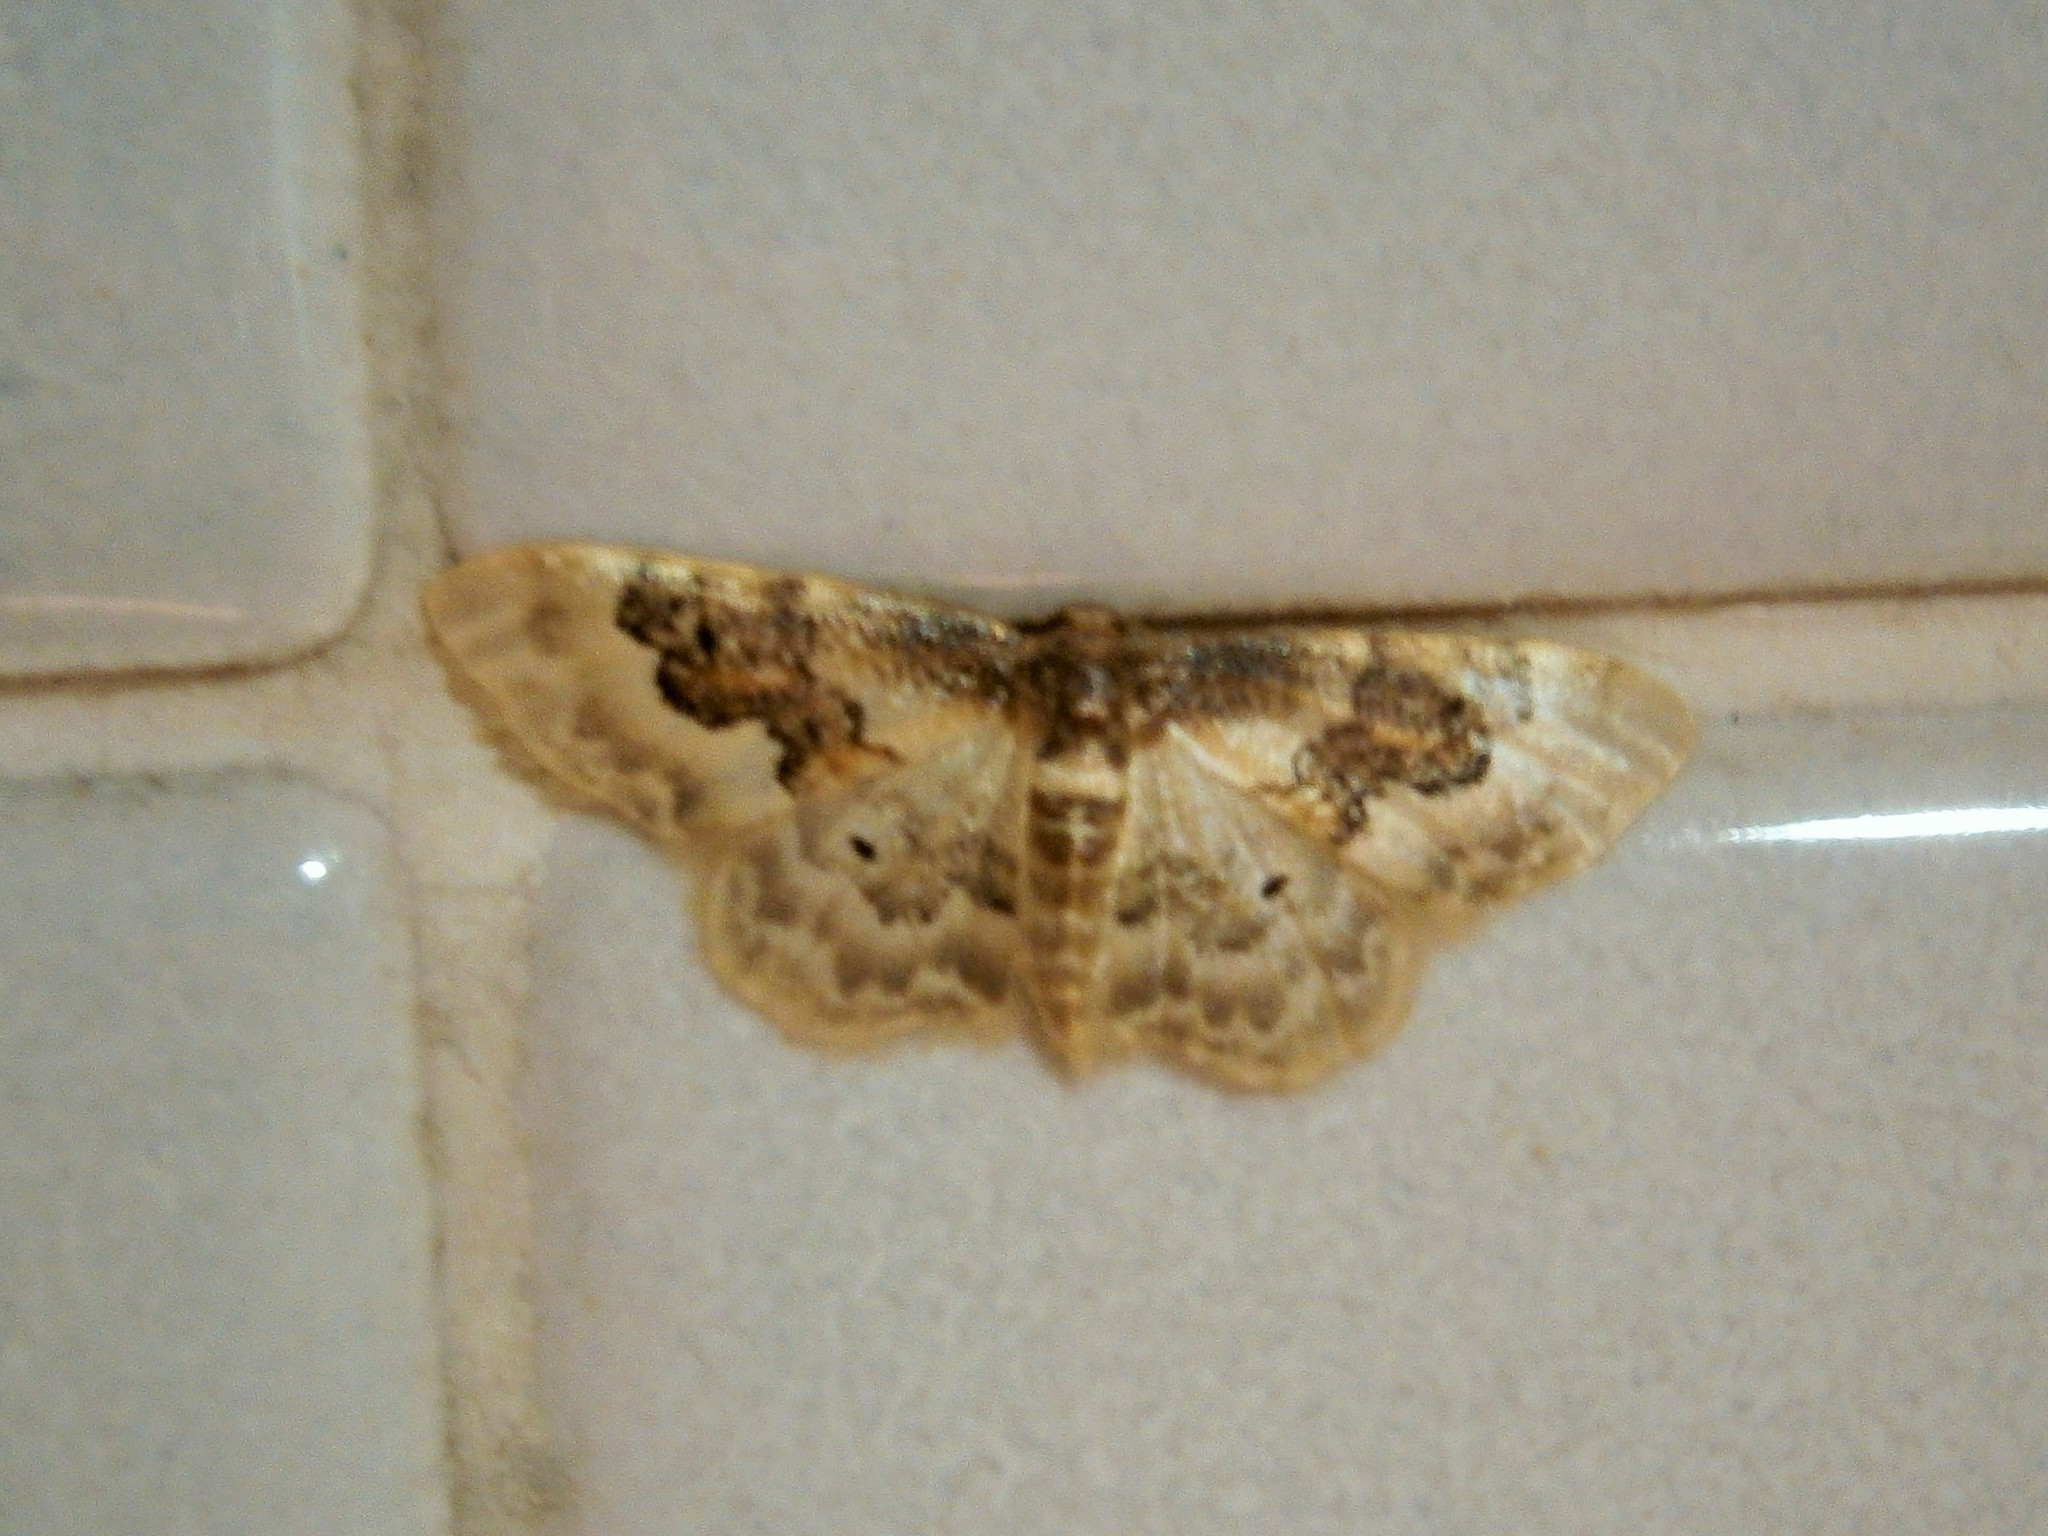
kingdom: Animalia
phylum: Arthropoda
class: Insecta
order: Lepidoptera
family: Geometridae
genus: Idaea
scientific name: Idaea rusticata
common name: Least carpet
